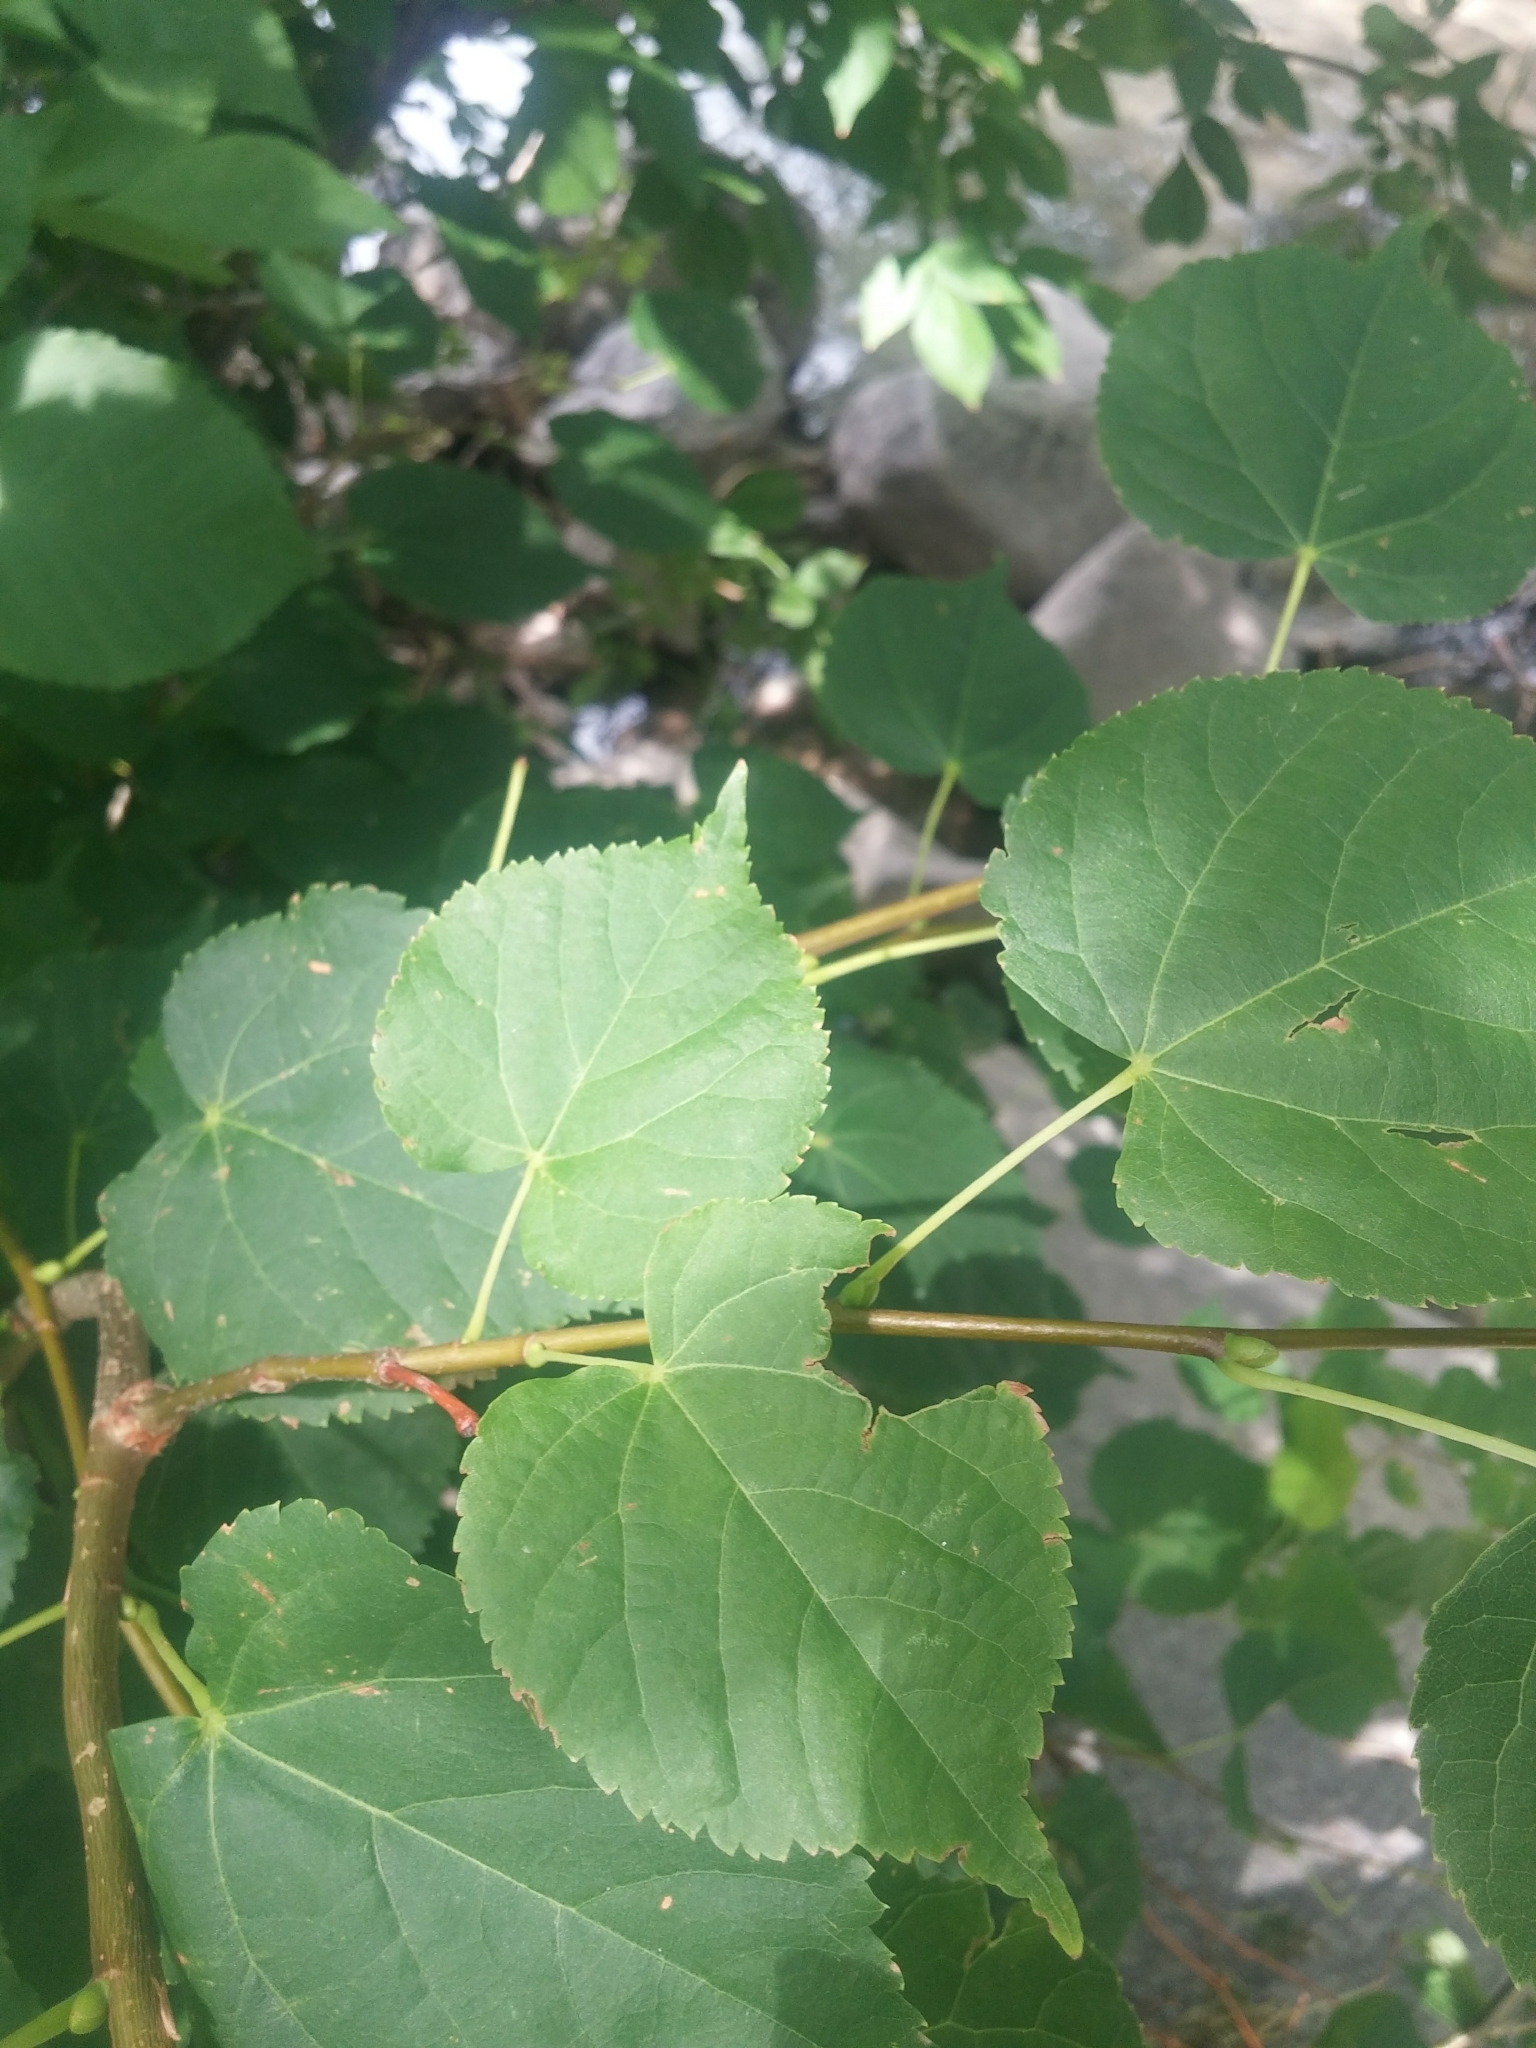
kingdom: Plantae
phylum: Tracheophyta
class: Magnoliopsida
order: Malvales
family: Malvaceae
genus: Tilia
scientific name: Tilia cordata
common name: Small-leaved lime
